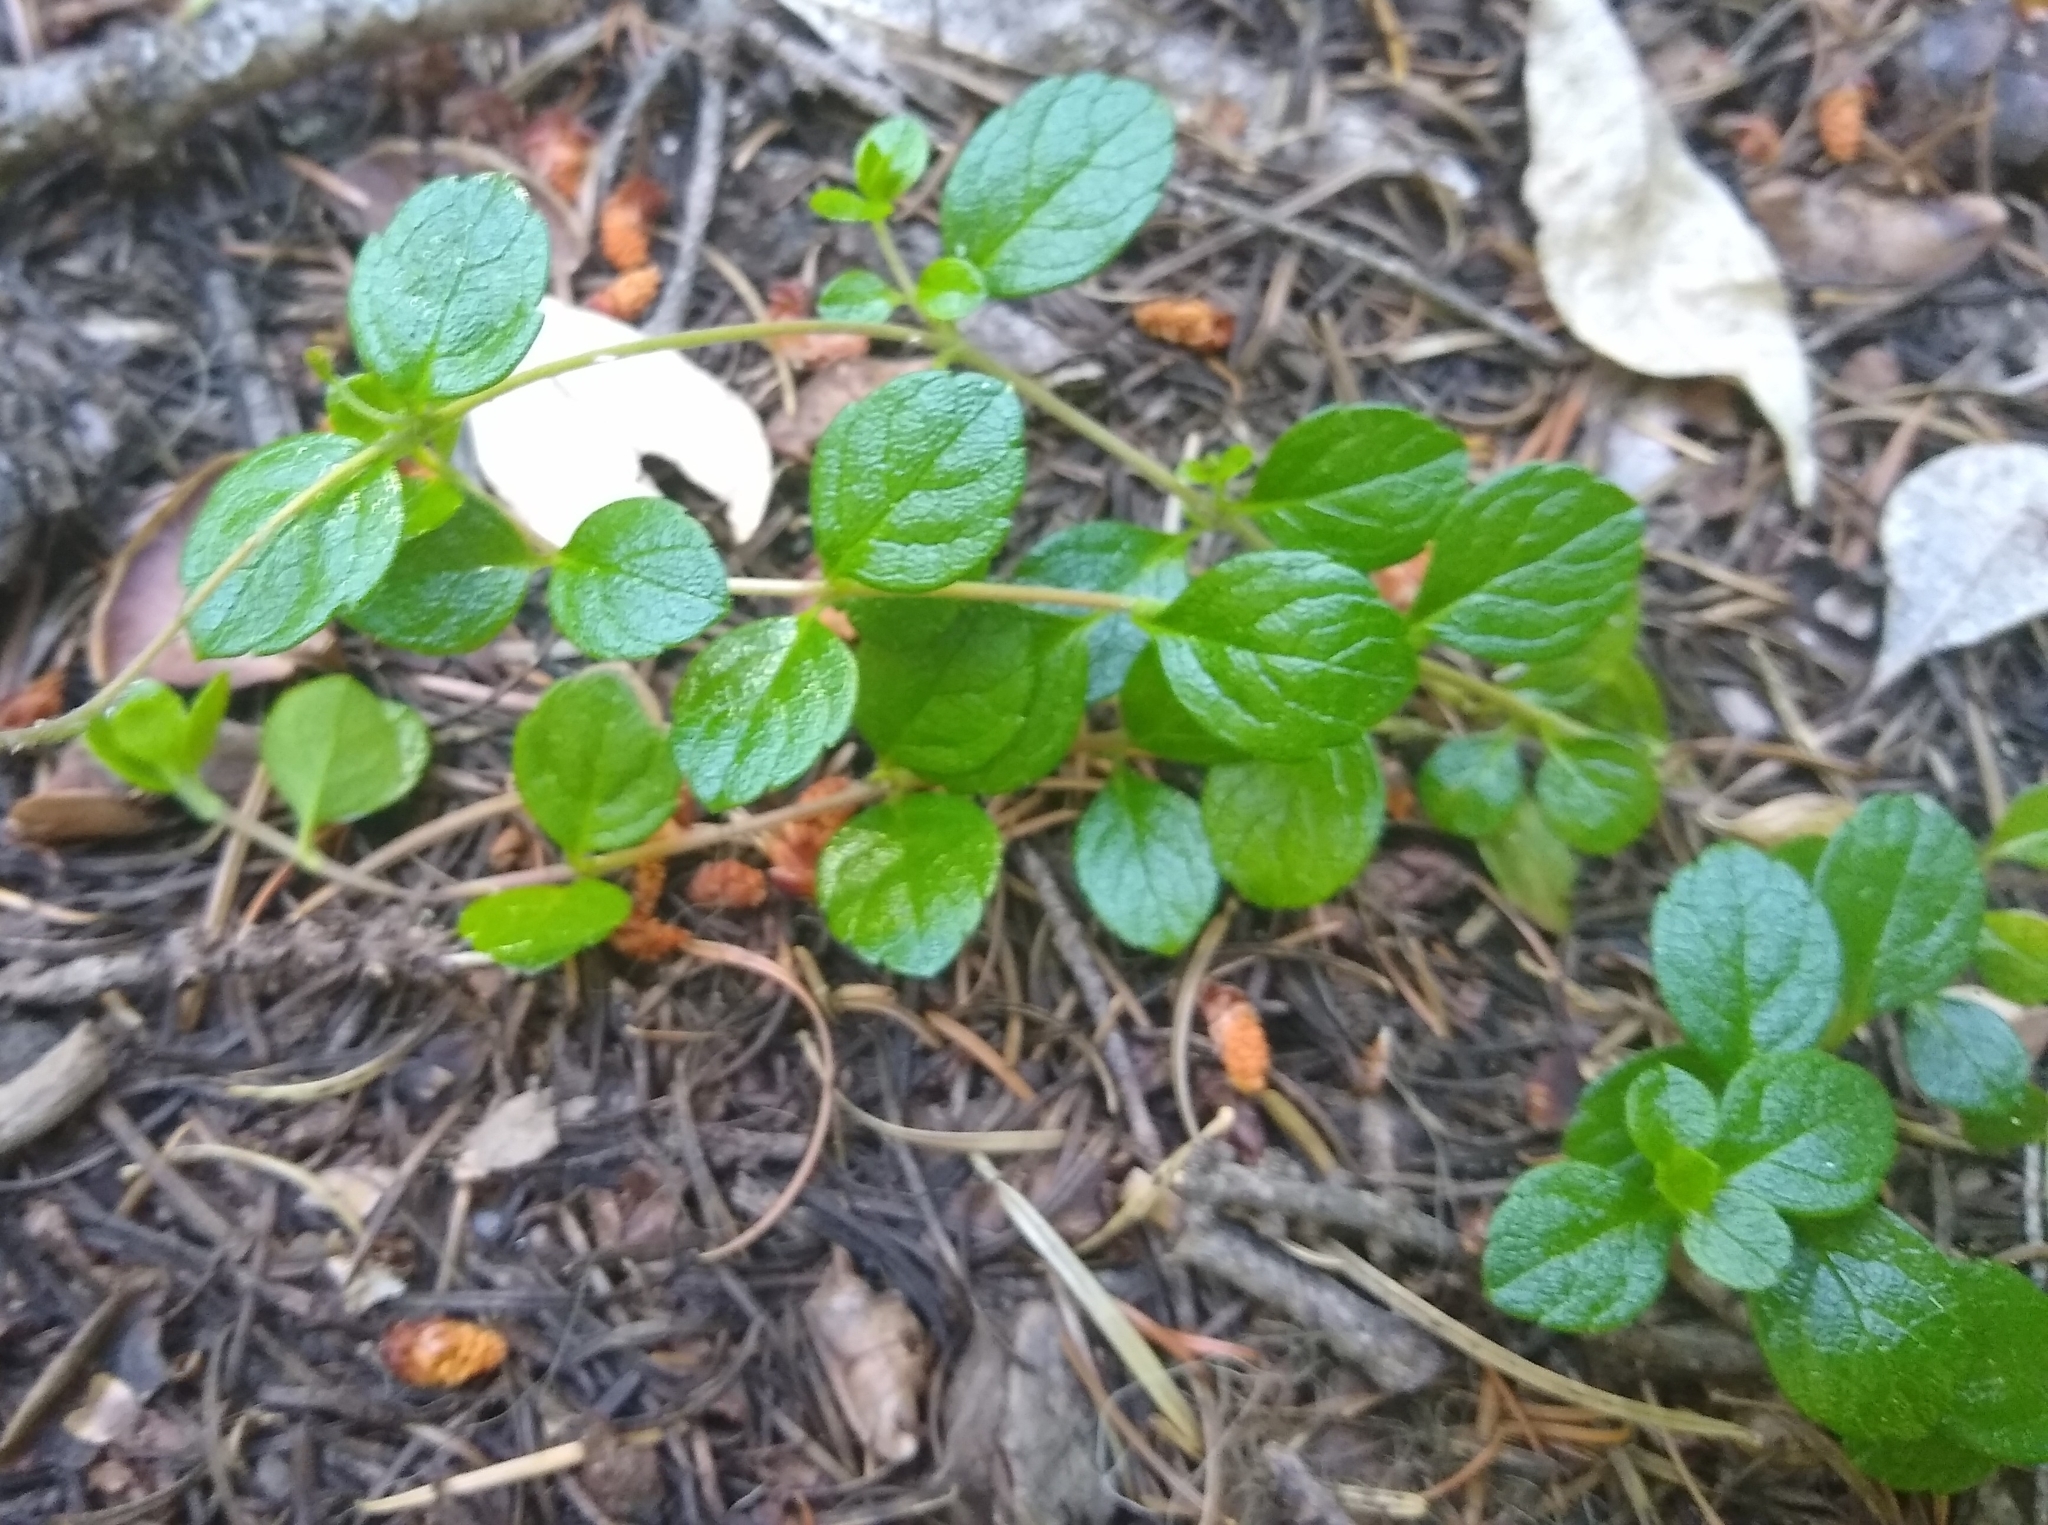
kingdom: Plantae
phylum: Tracheophyta
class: Magnoliopsida
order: Dipsacales
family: Caprifoliaceae
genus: Linnaea
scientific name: Linnaea borealis
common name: Twinflower
